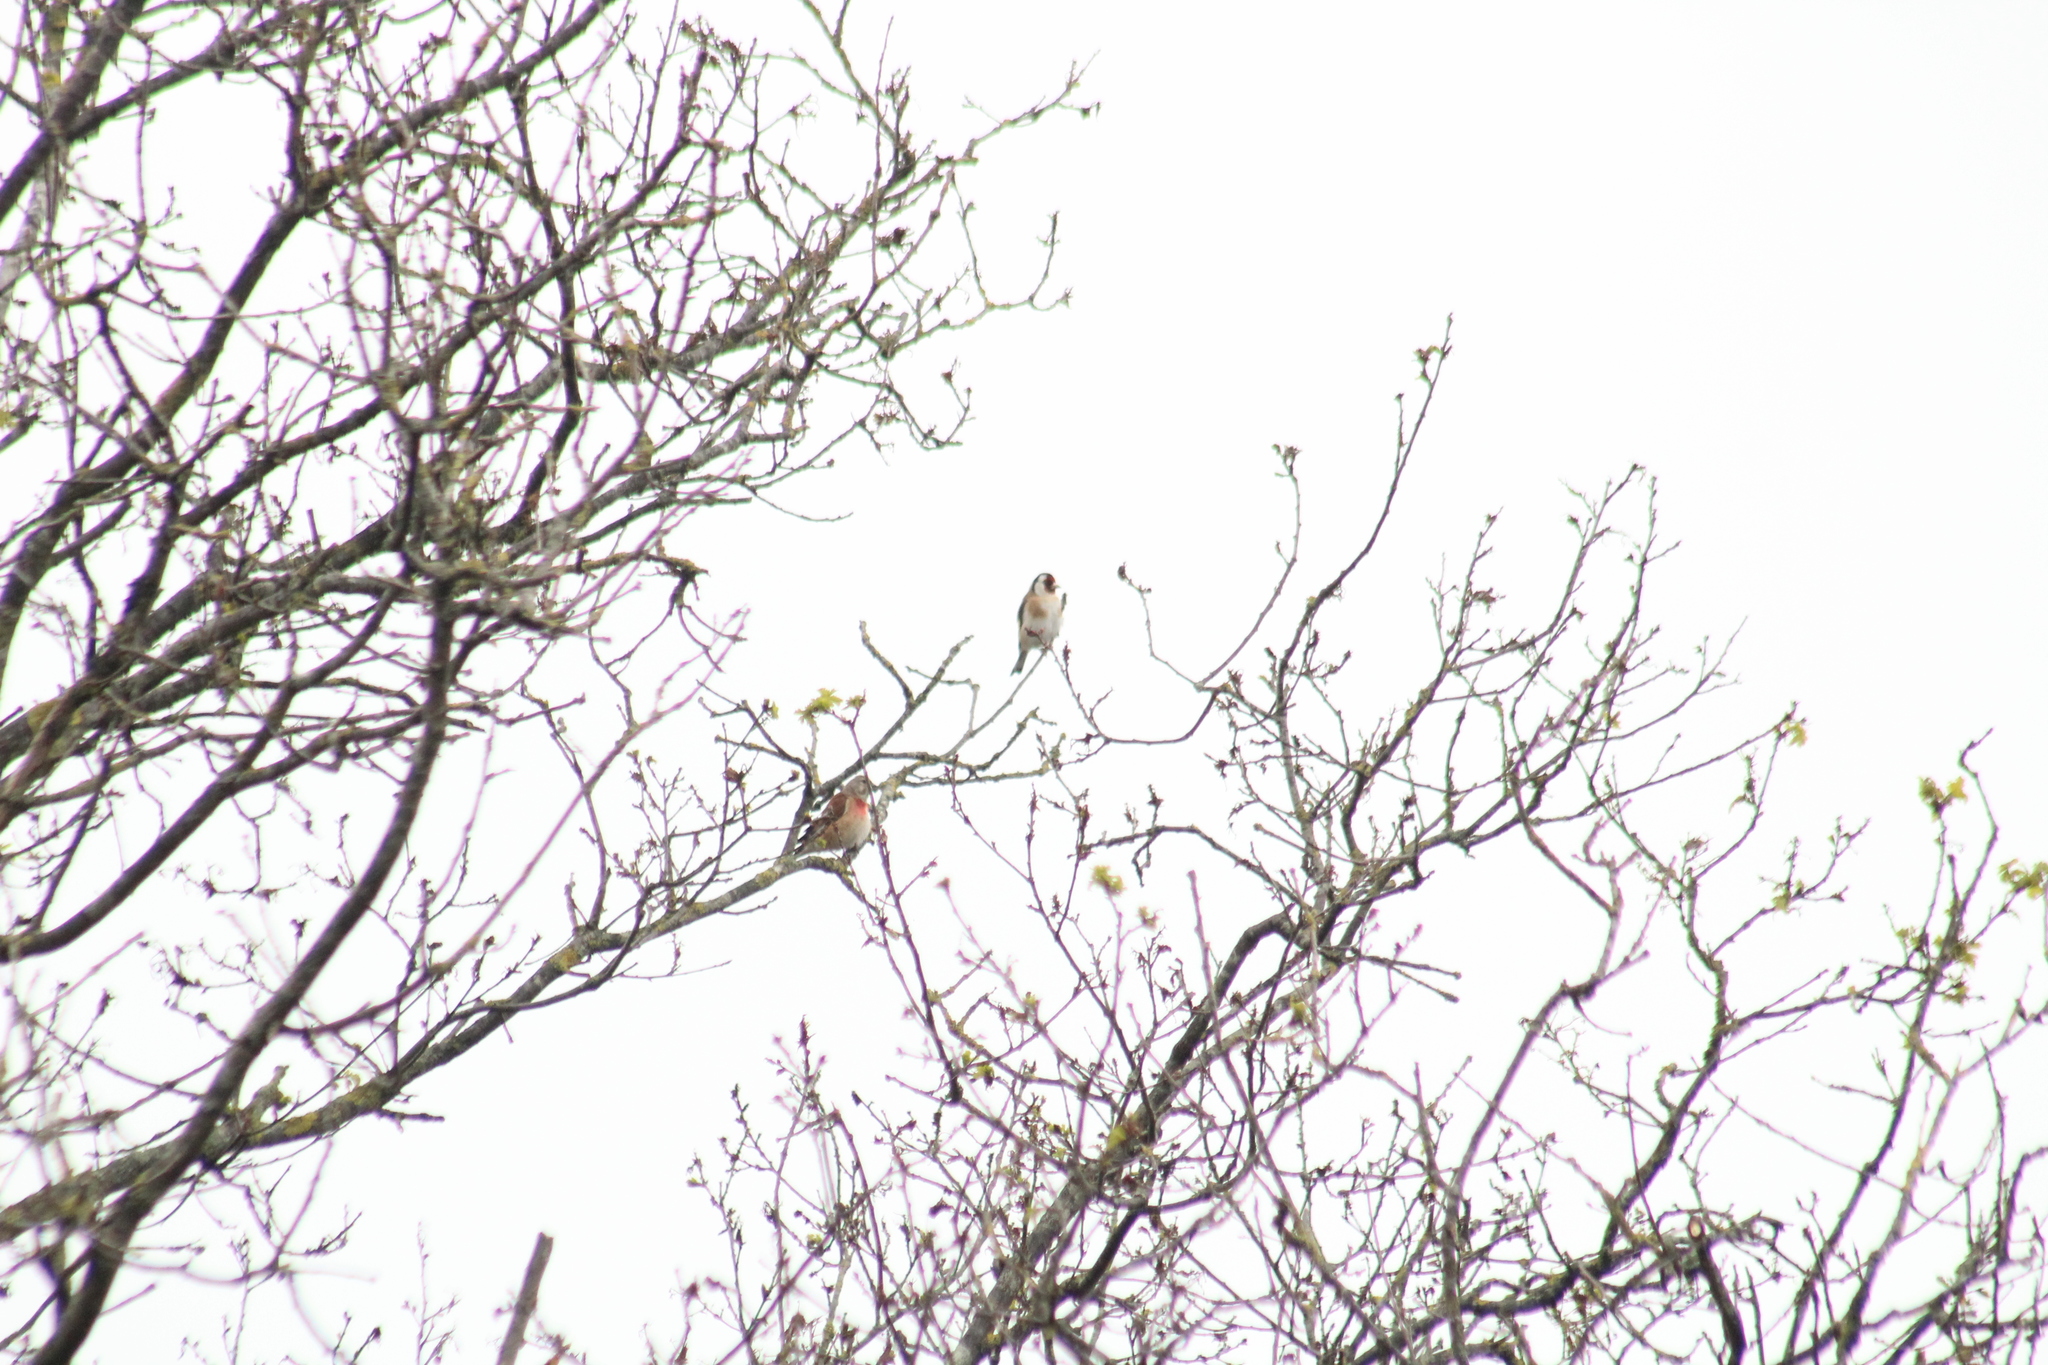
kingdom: Animalia
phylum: Chordata
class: Aves
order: Passeriformes
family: Fringillidae
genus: Carduelis
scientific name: Carduelis carduelis
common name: European goldfinch
